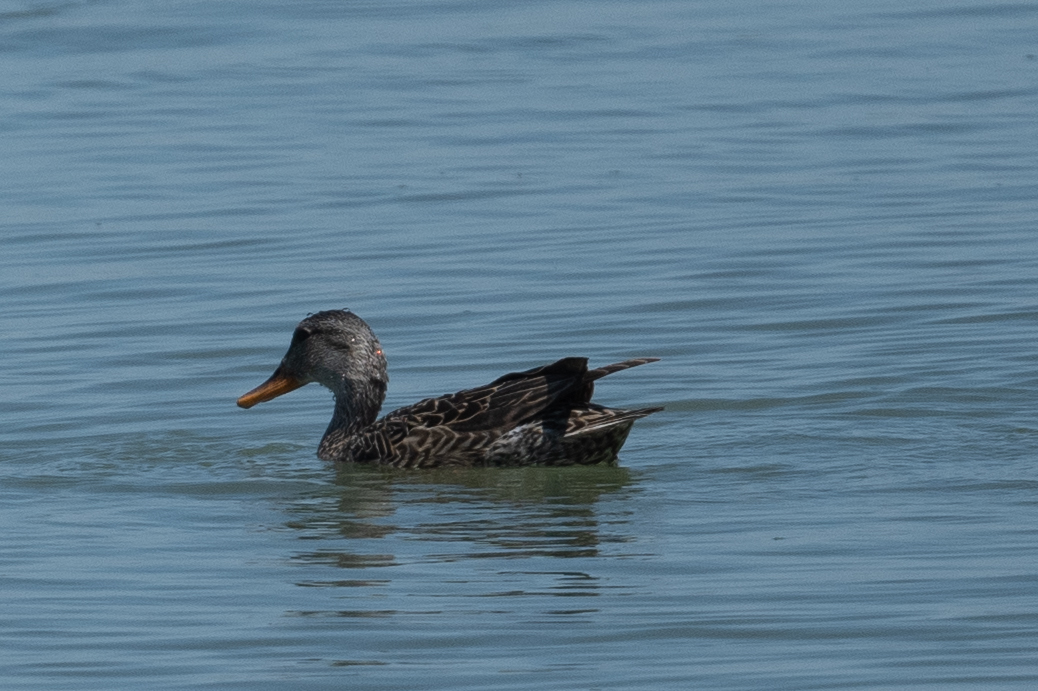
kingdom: Animalia
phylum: Chordata
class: Aves
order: Anseriformes
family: Anatidae
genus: Mareca
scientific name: Mareca strepera
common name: Gadwall
